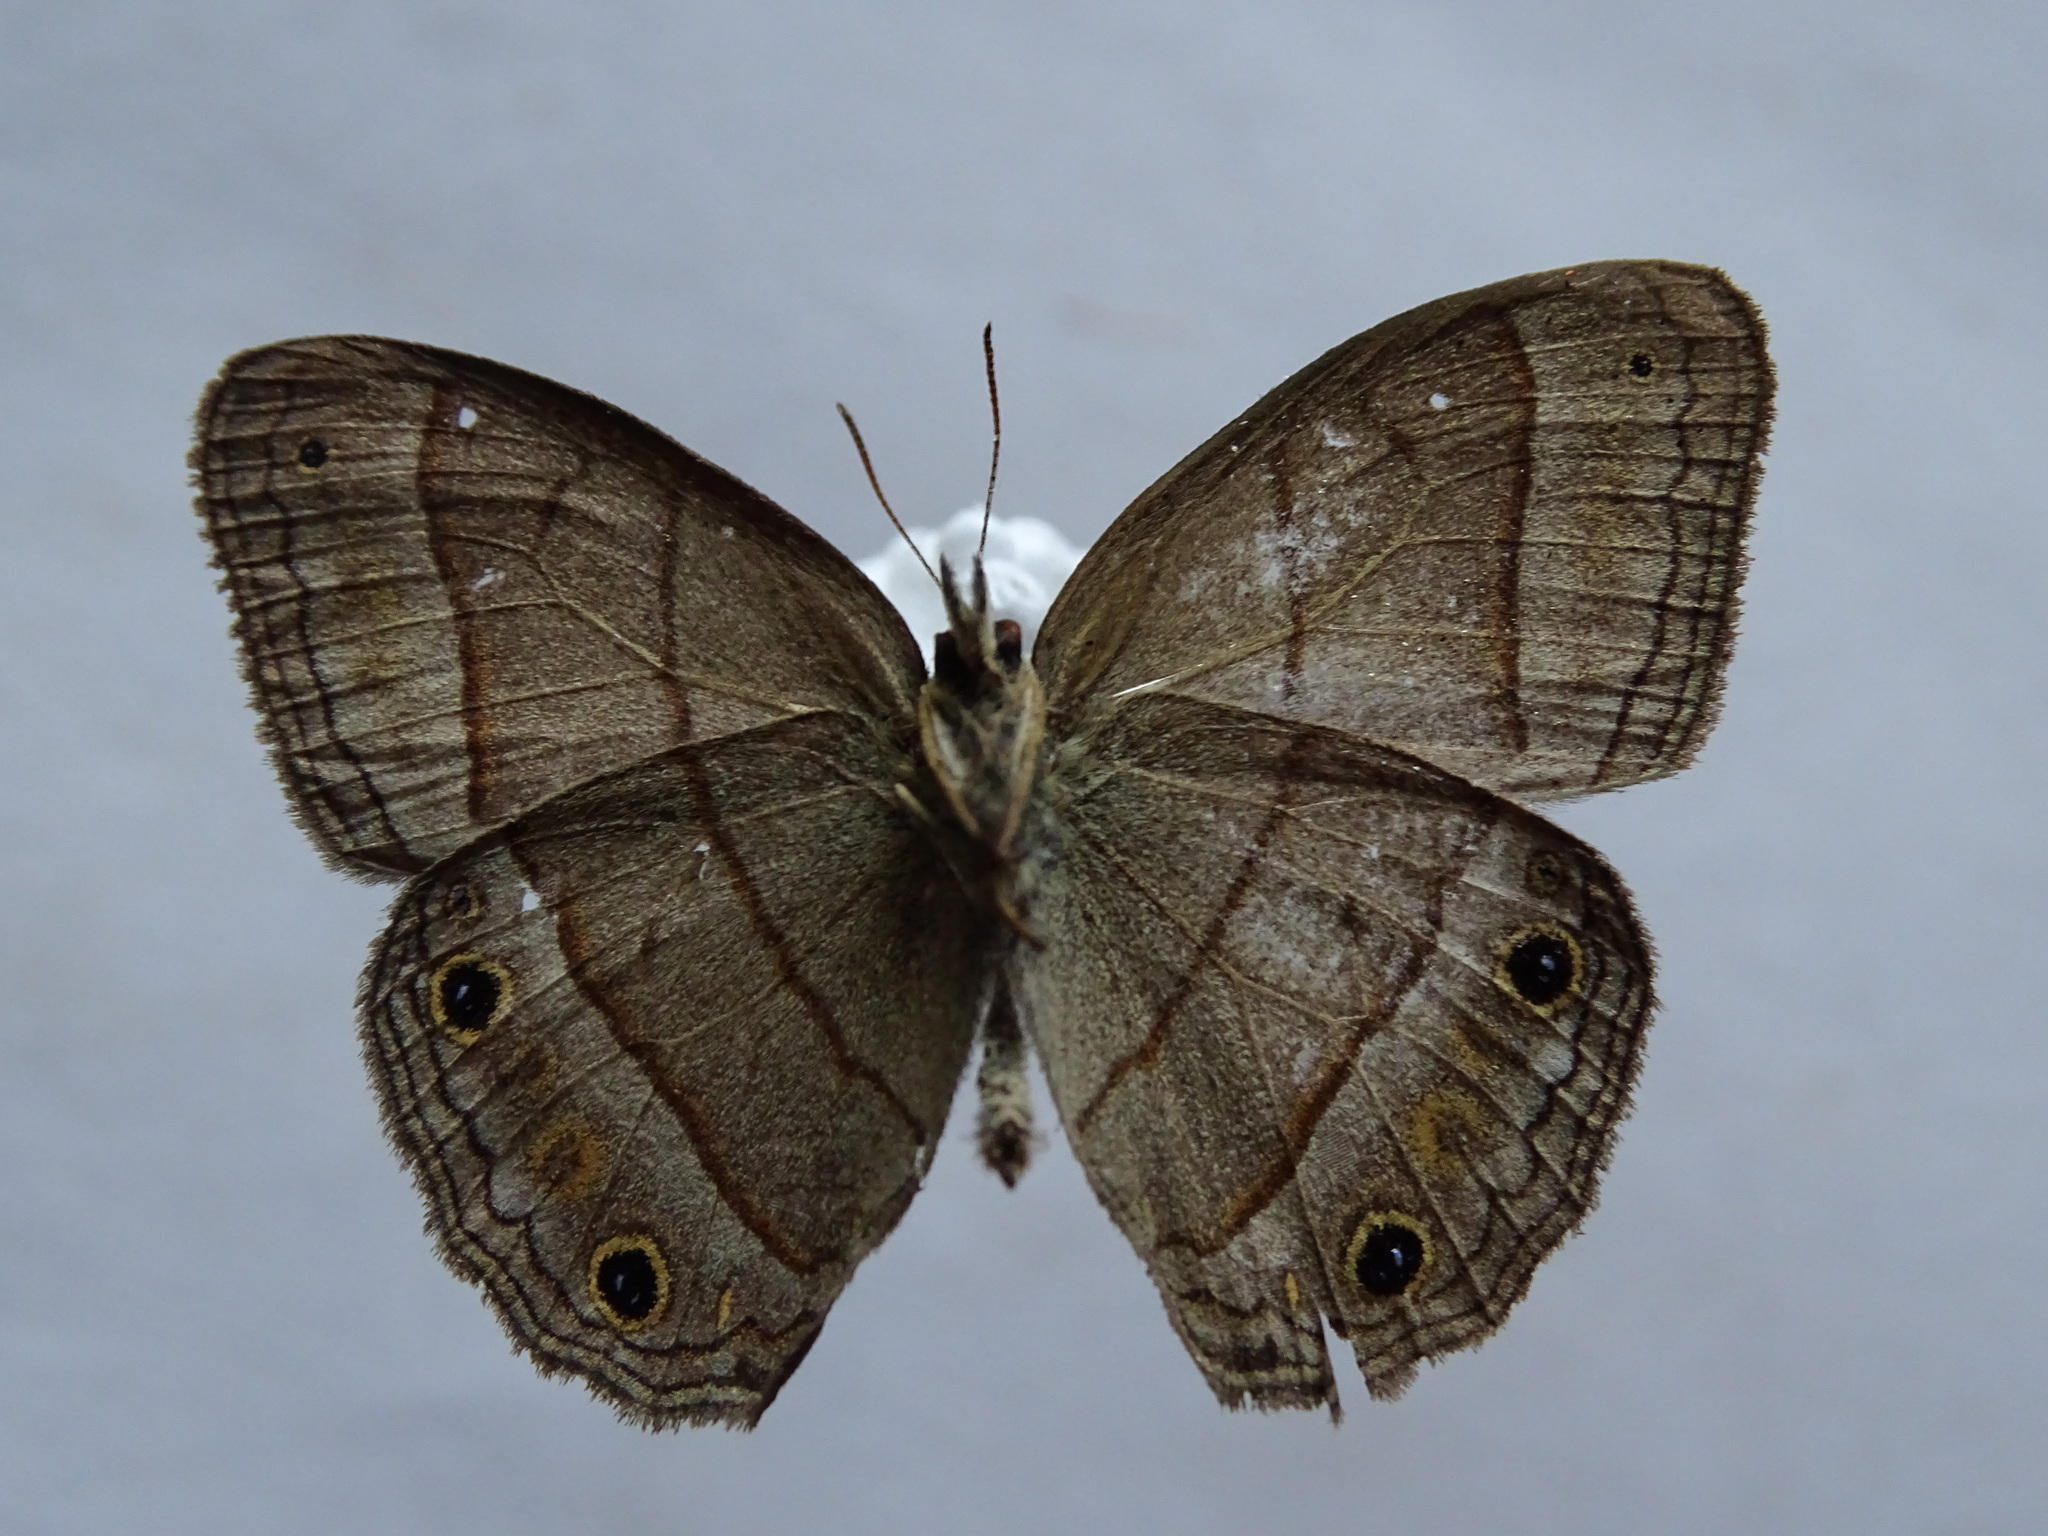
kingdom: Animalia
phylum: Arthropoda
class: Insecta
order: Lepidoptera
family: Nymphalidae
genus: Euptychia
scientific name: Euptychia Cissia pompilia
